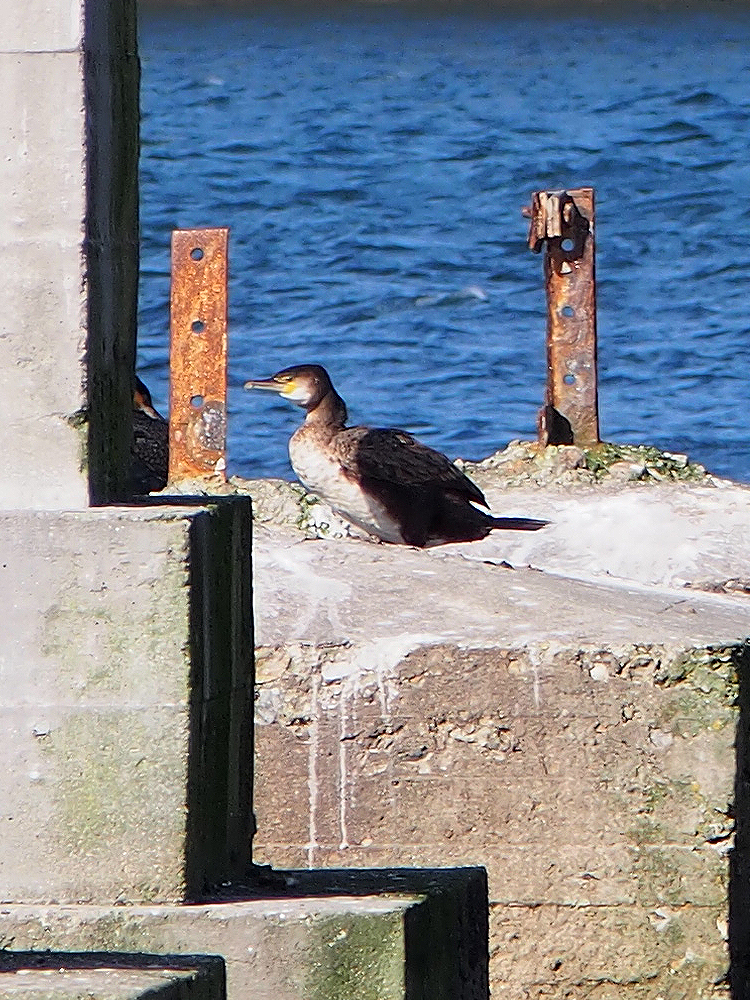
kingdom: Animalia
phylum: Chordata
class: Aves
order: Suliformes
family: Phalacrocoracidae
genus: Phalacrocorax
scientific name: Phalacrocorax carbo
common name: Great cormorant
